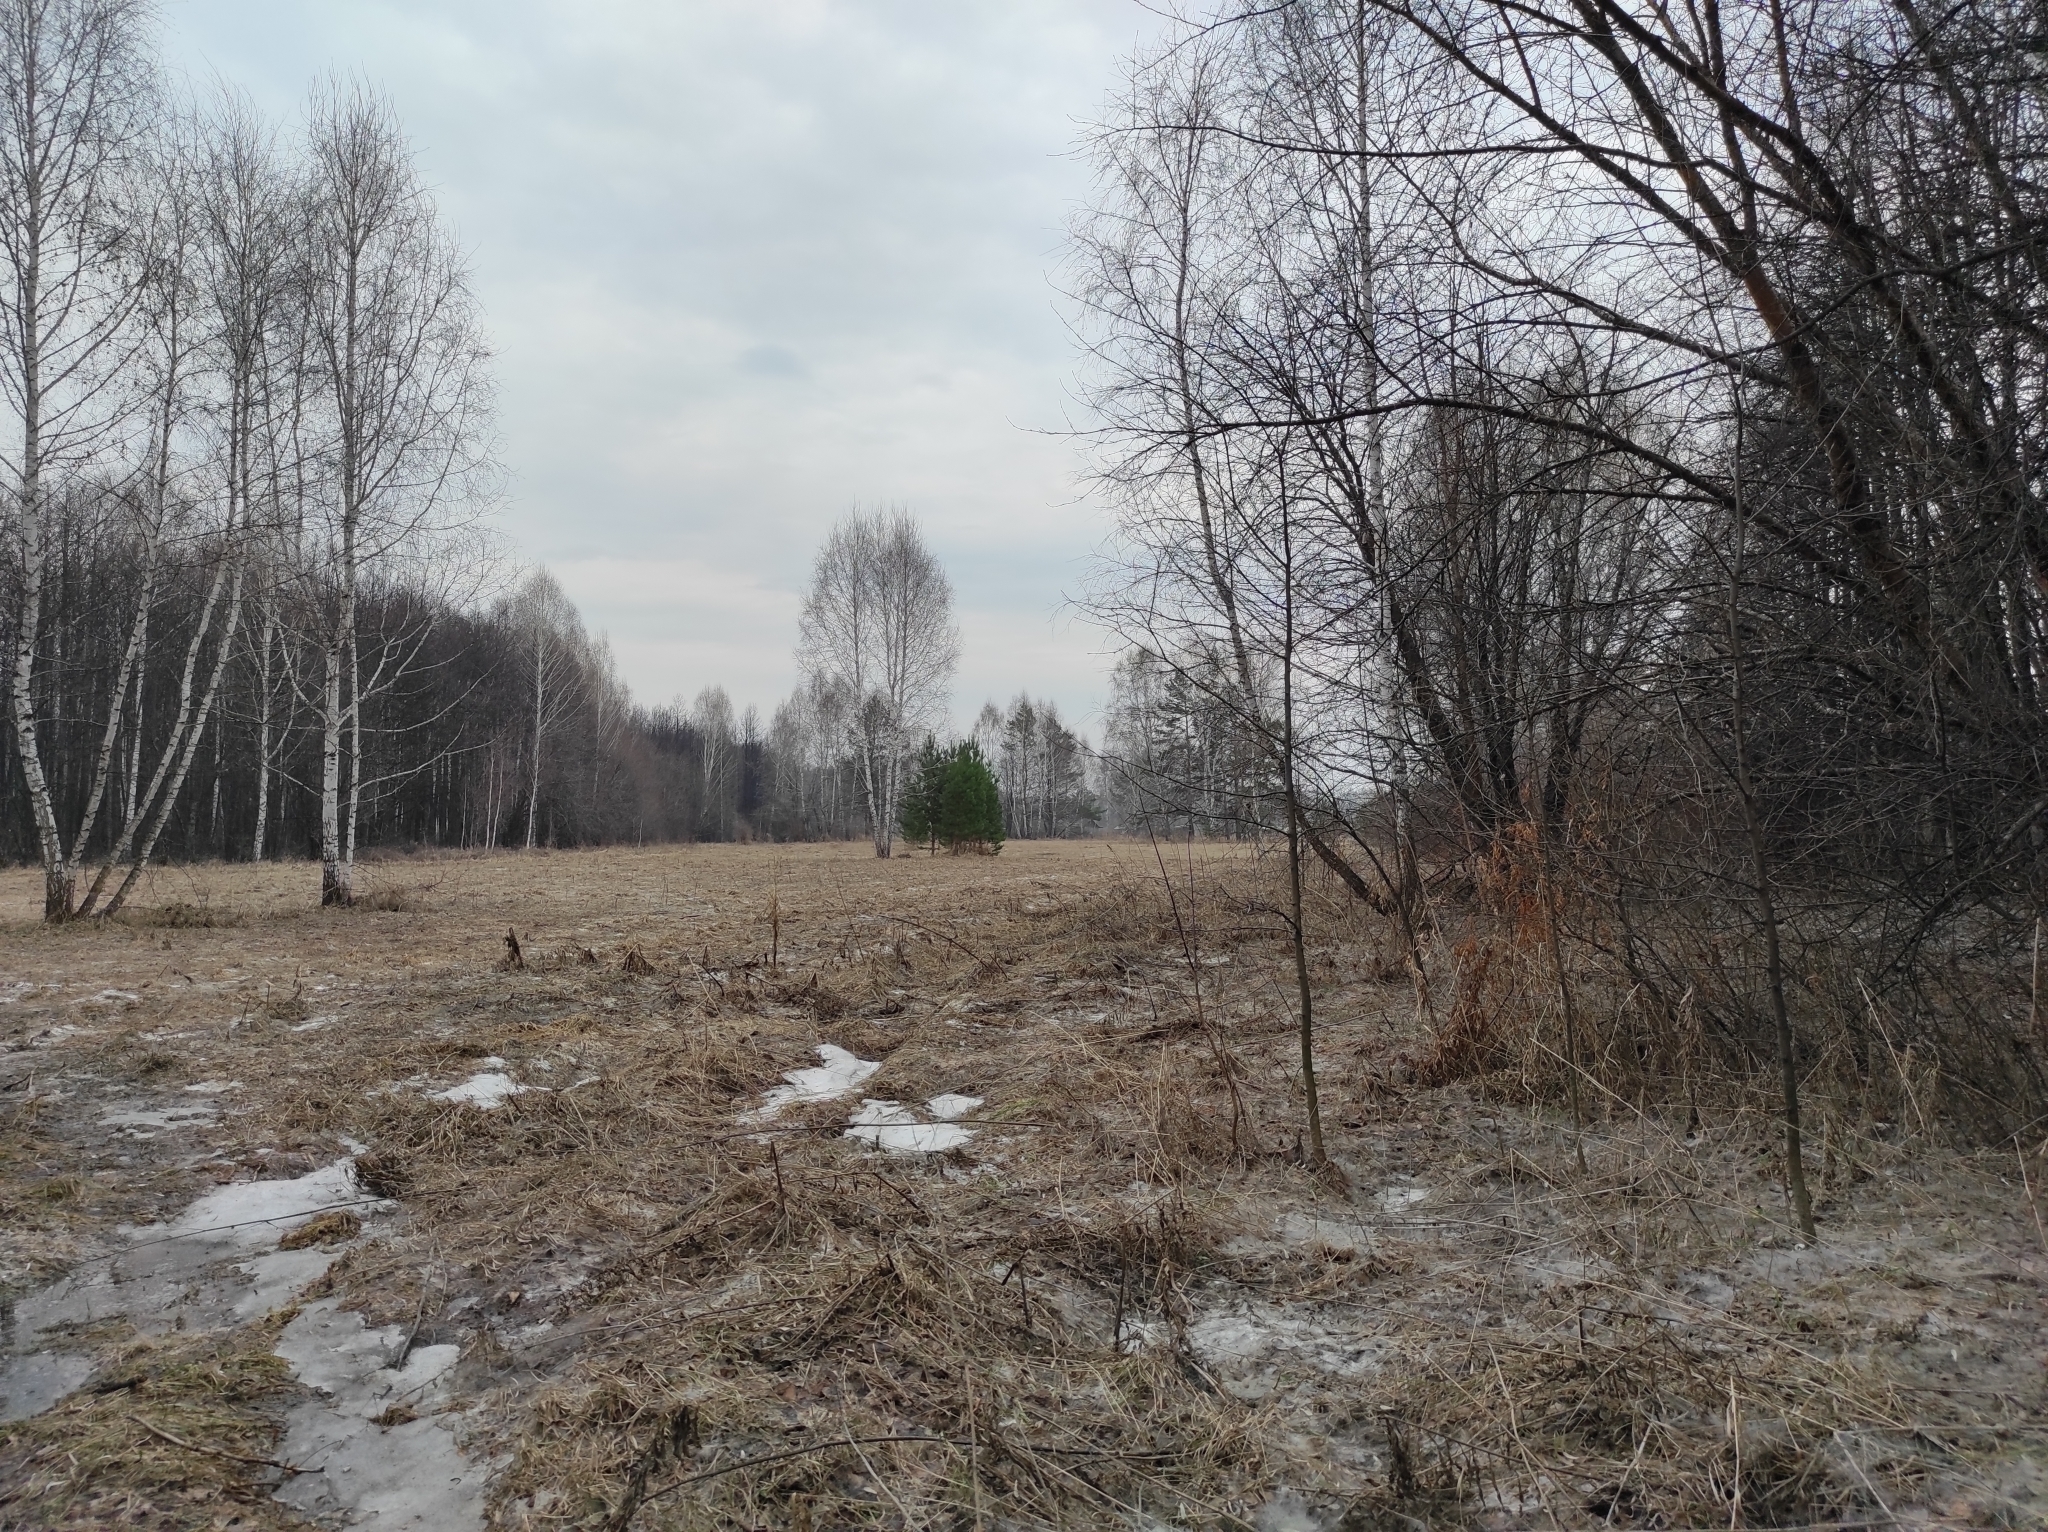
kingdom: Plantae
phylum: Tracheophyta
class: Pinopsida
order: Pinales
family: Pinaceae
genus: Pinus
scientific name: Pinus sylvestris
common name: Scots pine
